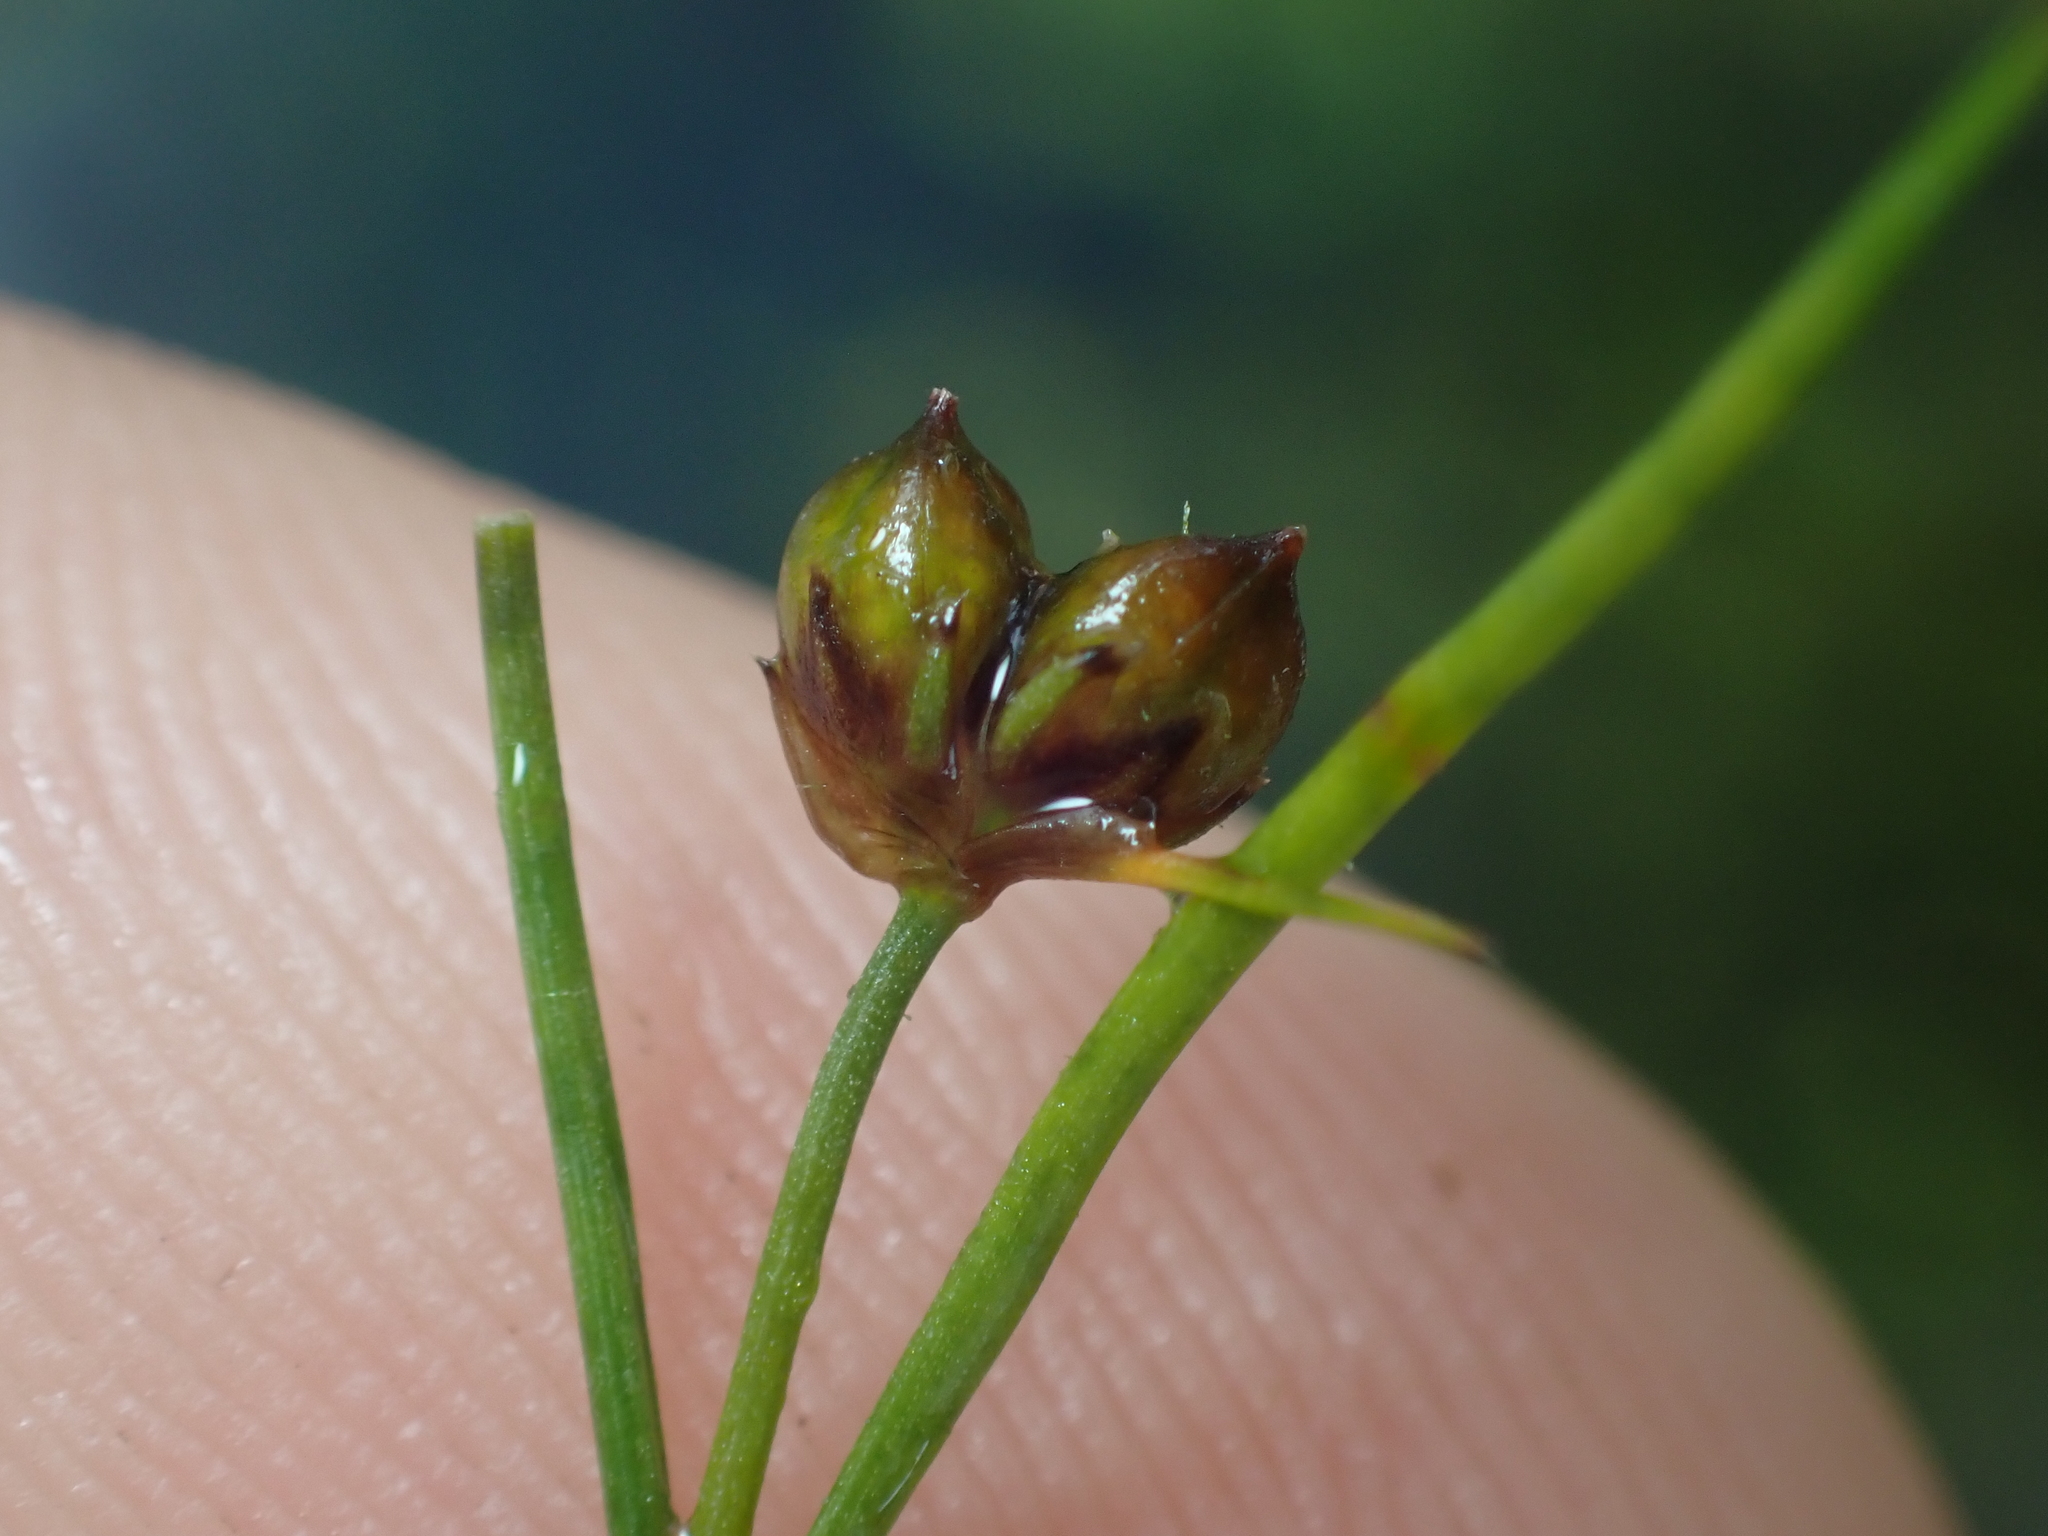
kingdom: Plantae
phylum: Tracheophyta
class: Liliopsida
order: Poales
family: Juncaceae
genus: Juncus
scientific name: Juncus pusillus
